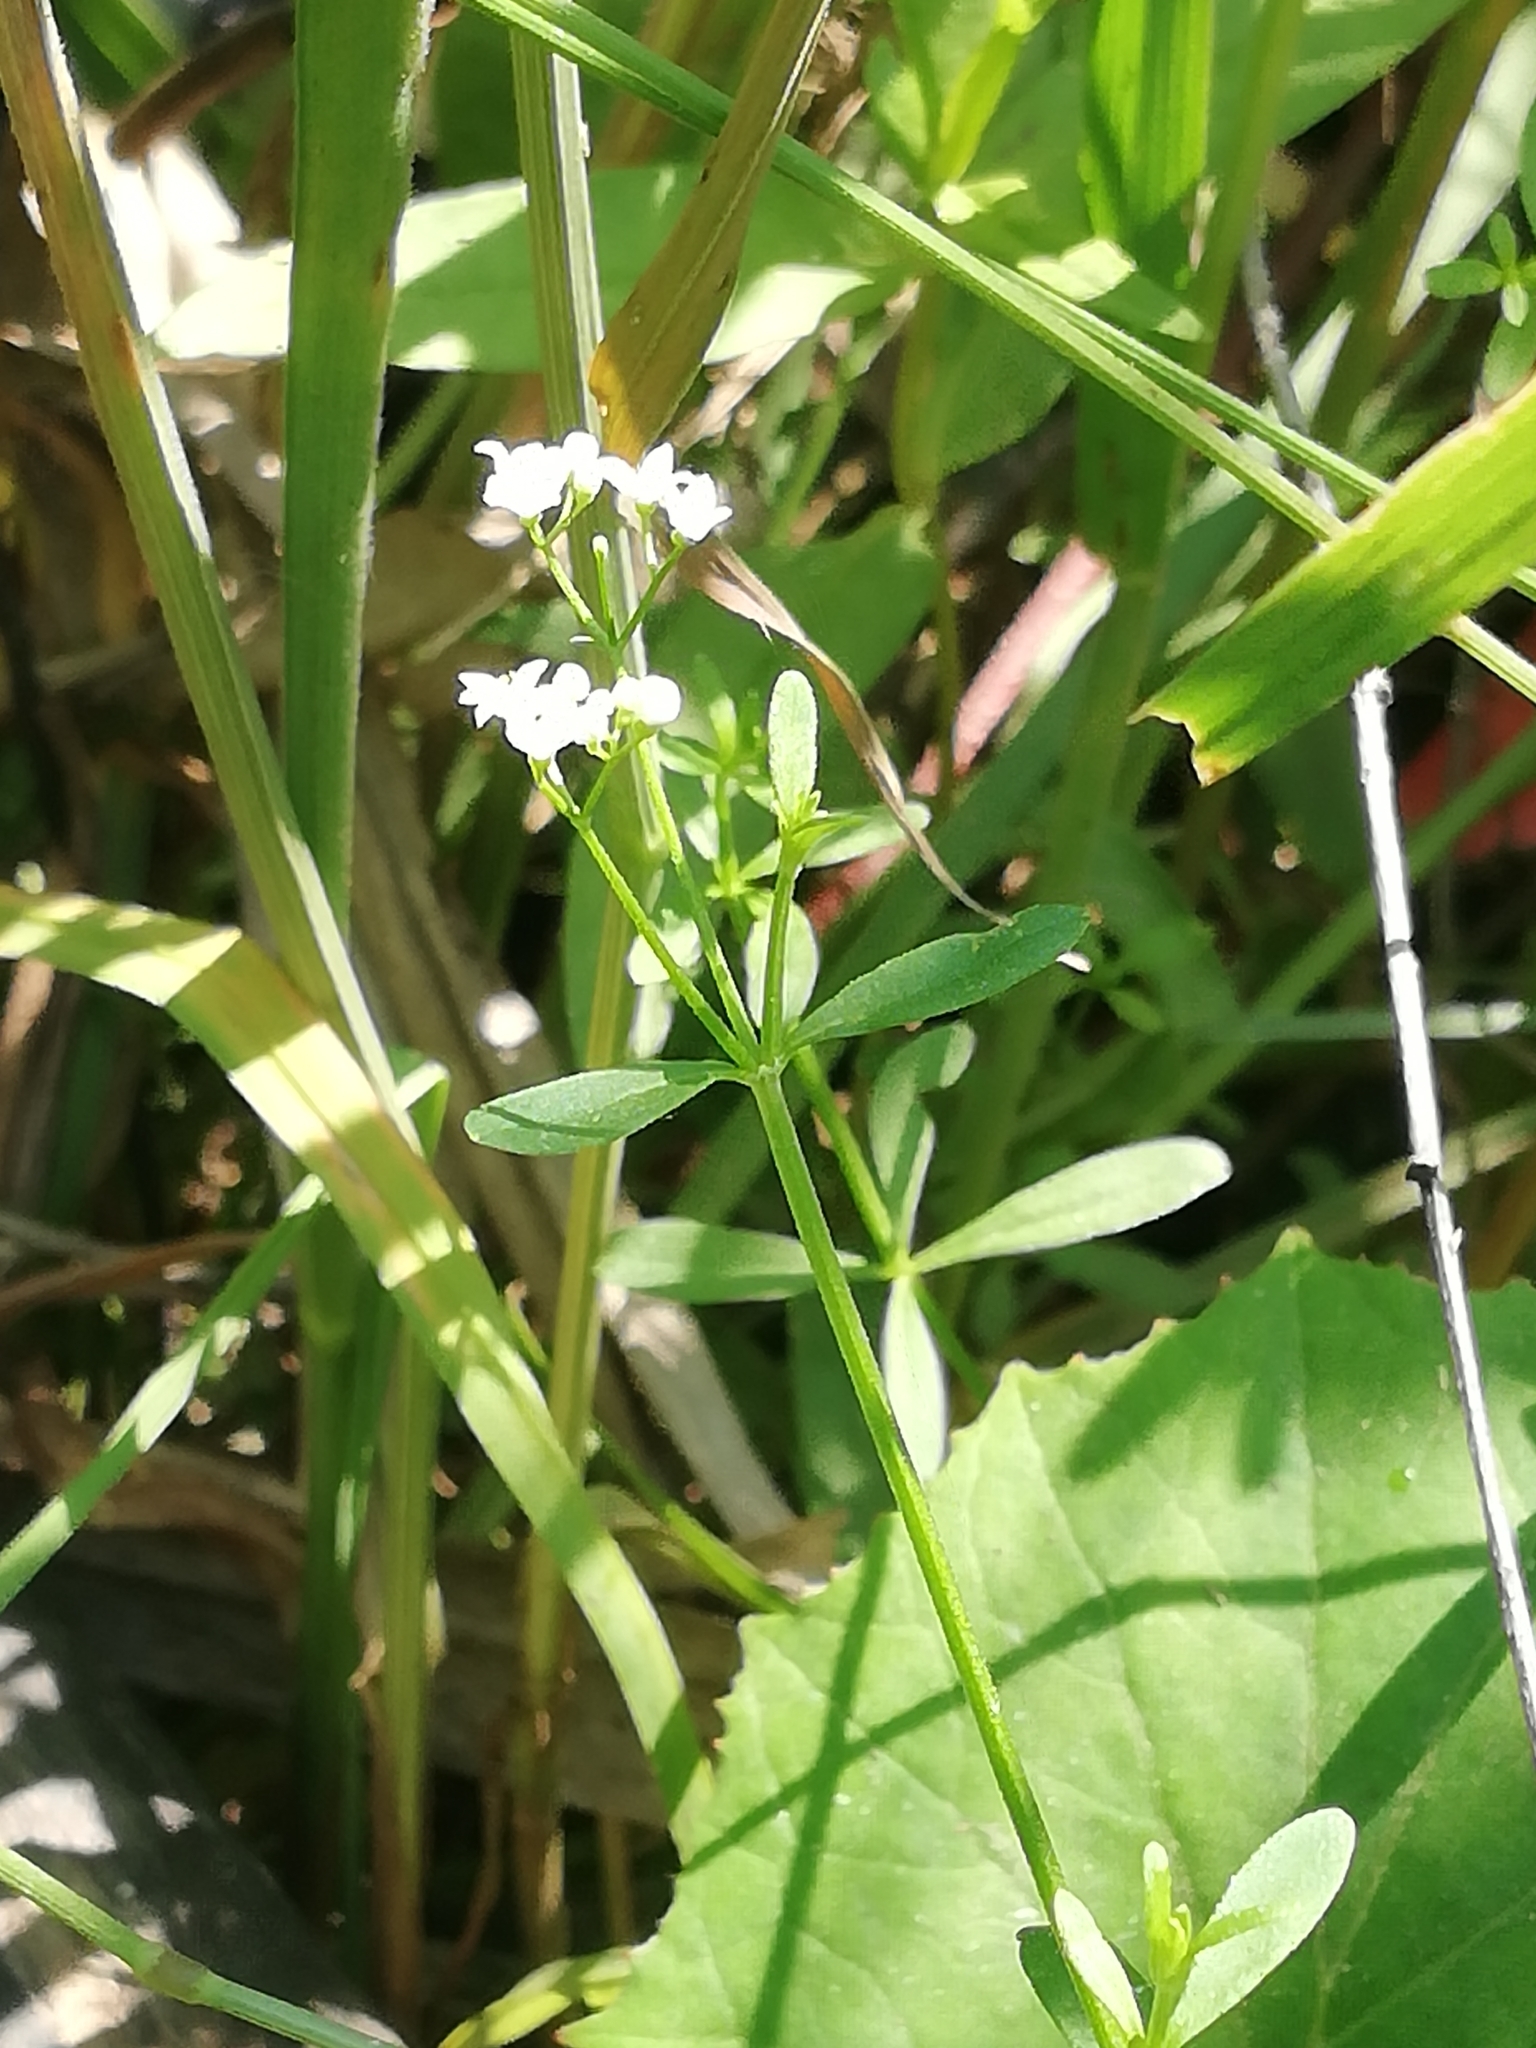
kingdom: Plantae
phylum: Tracheophyta
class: Magnoliopsida
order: Gentianales
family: Rubiaceae
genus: Galium
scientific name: Galium palustre
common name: Common marsh-bedstraw
